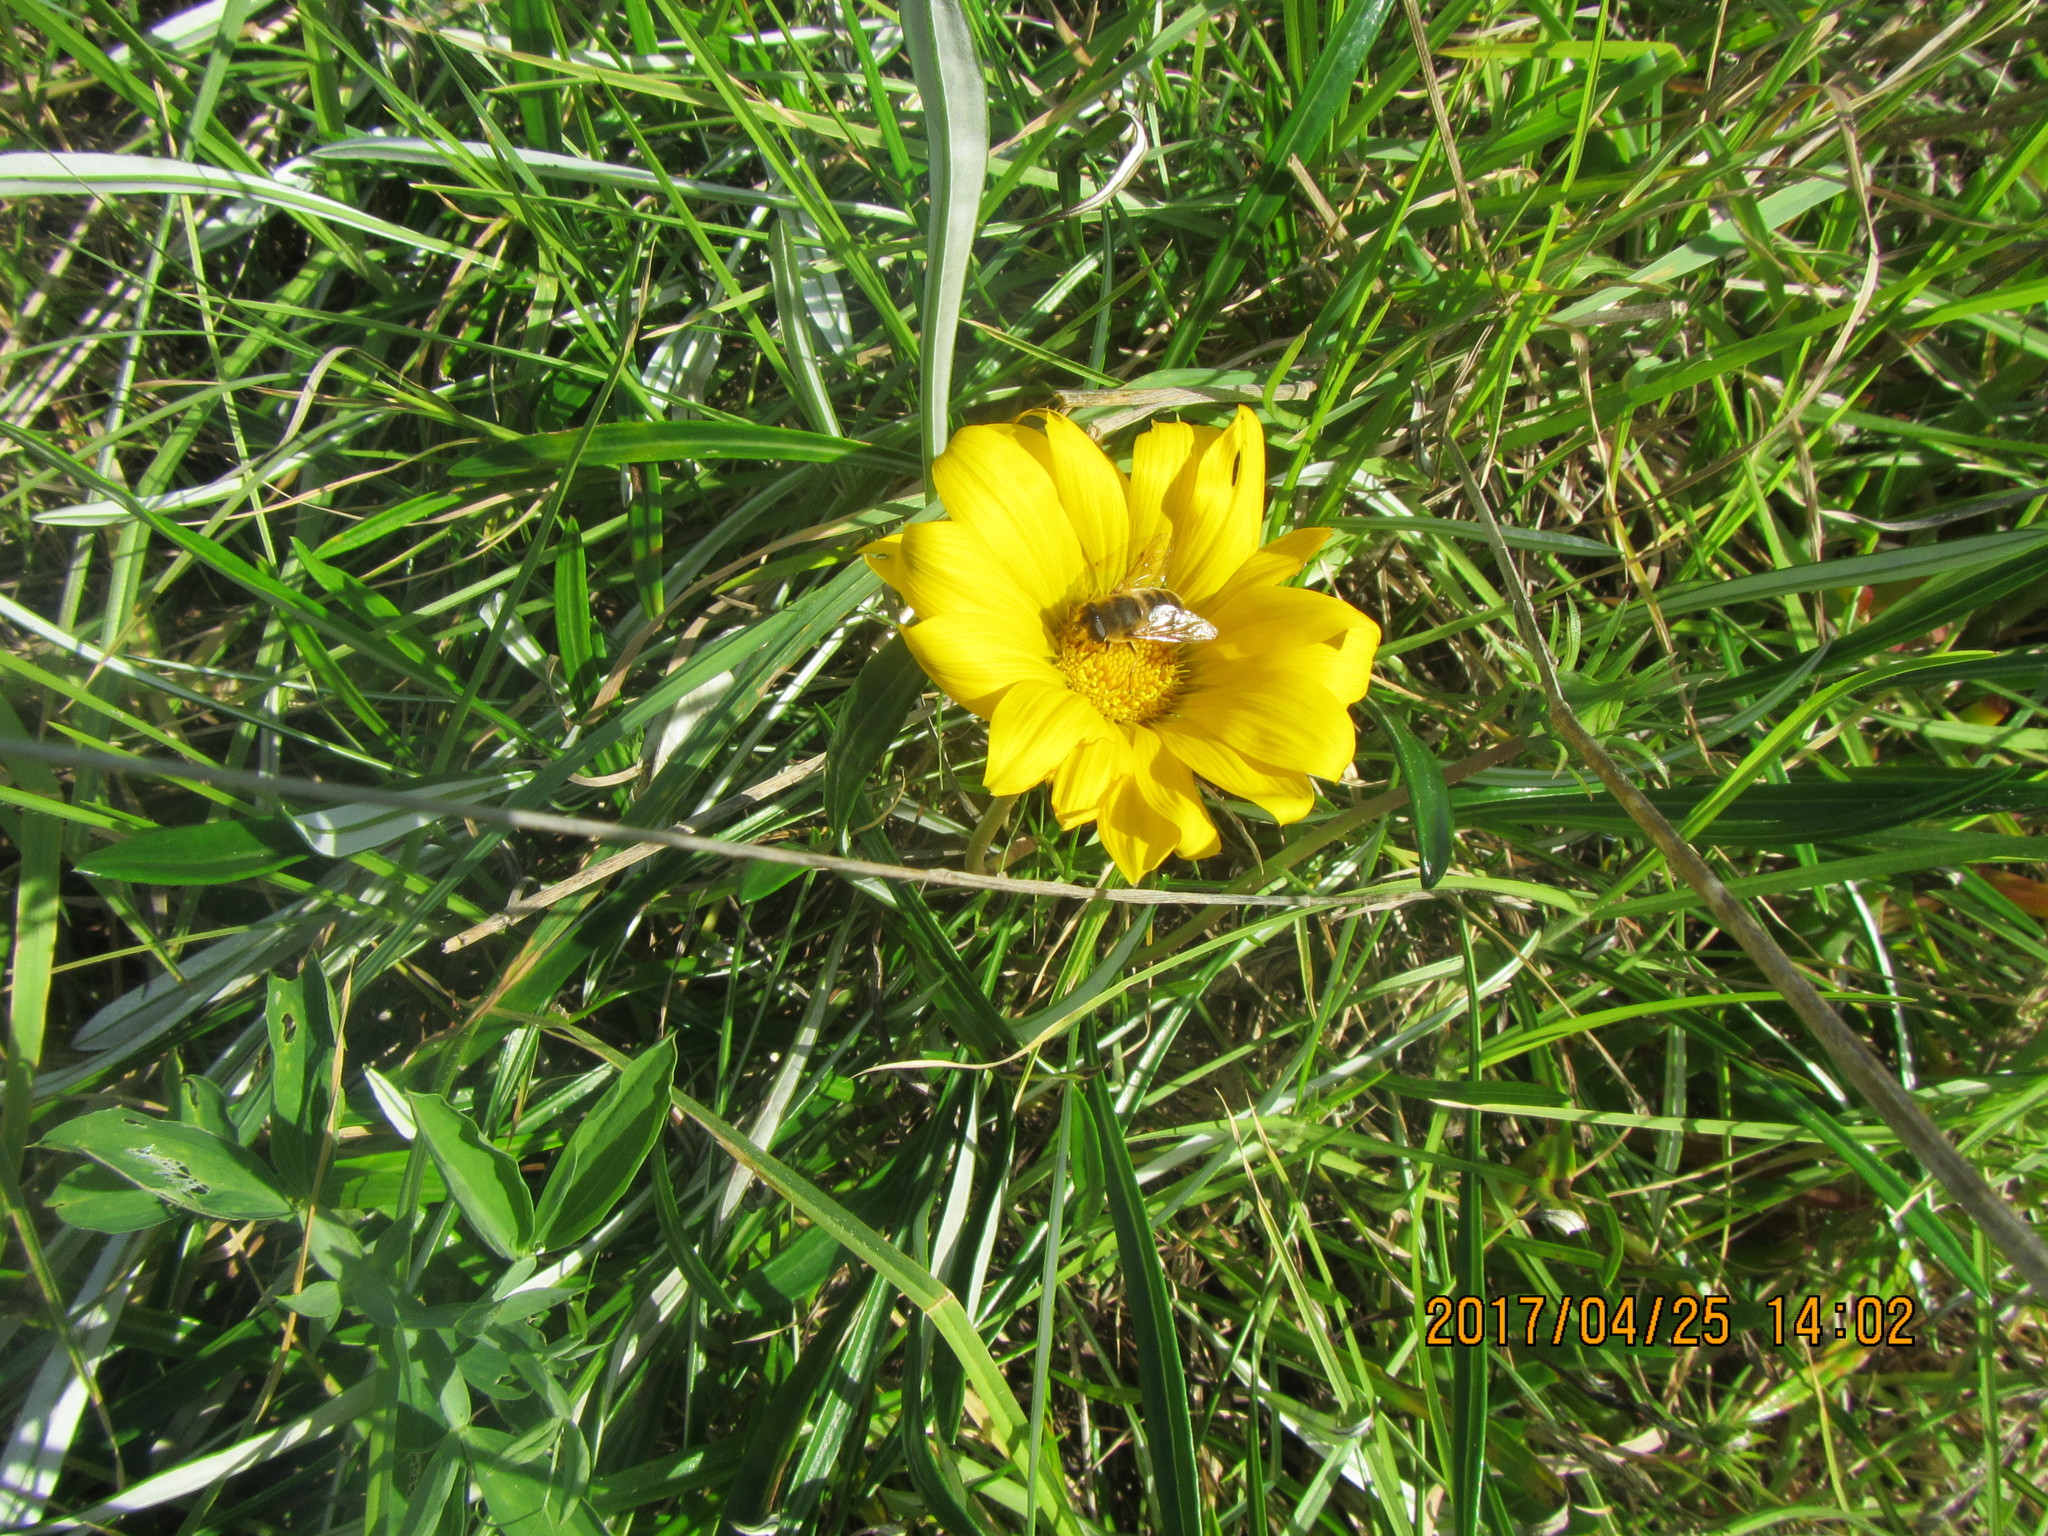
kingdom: Animalia
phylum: Arthropoda
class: Insecta
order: Diptera
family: Syrphidae
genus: Eristalis
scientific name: Eristalis tenax
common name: Drone fly
